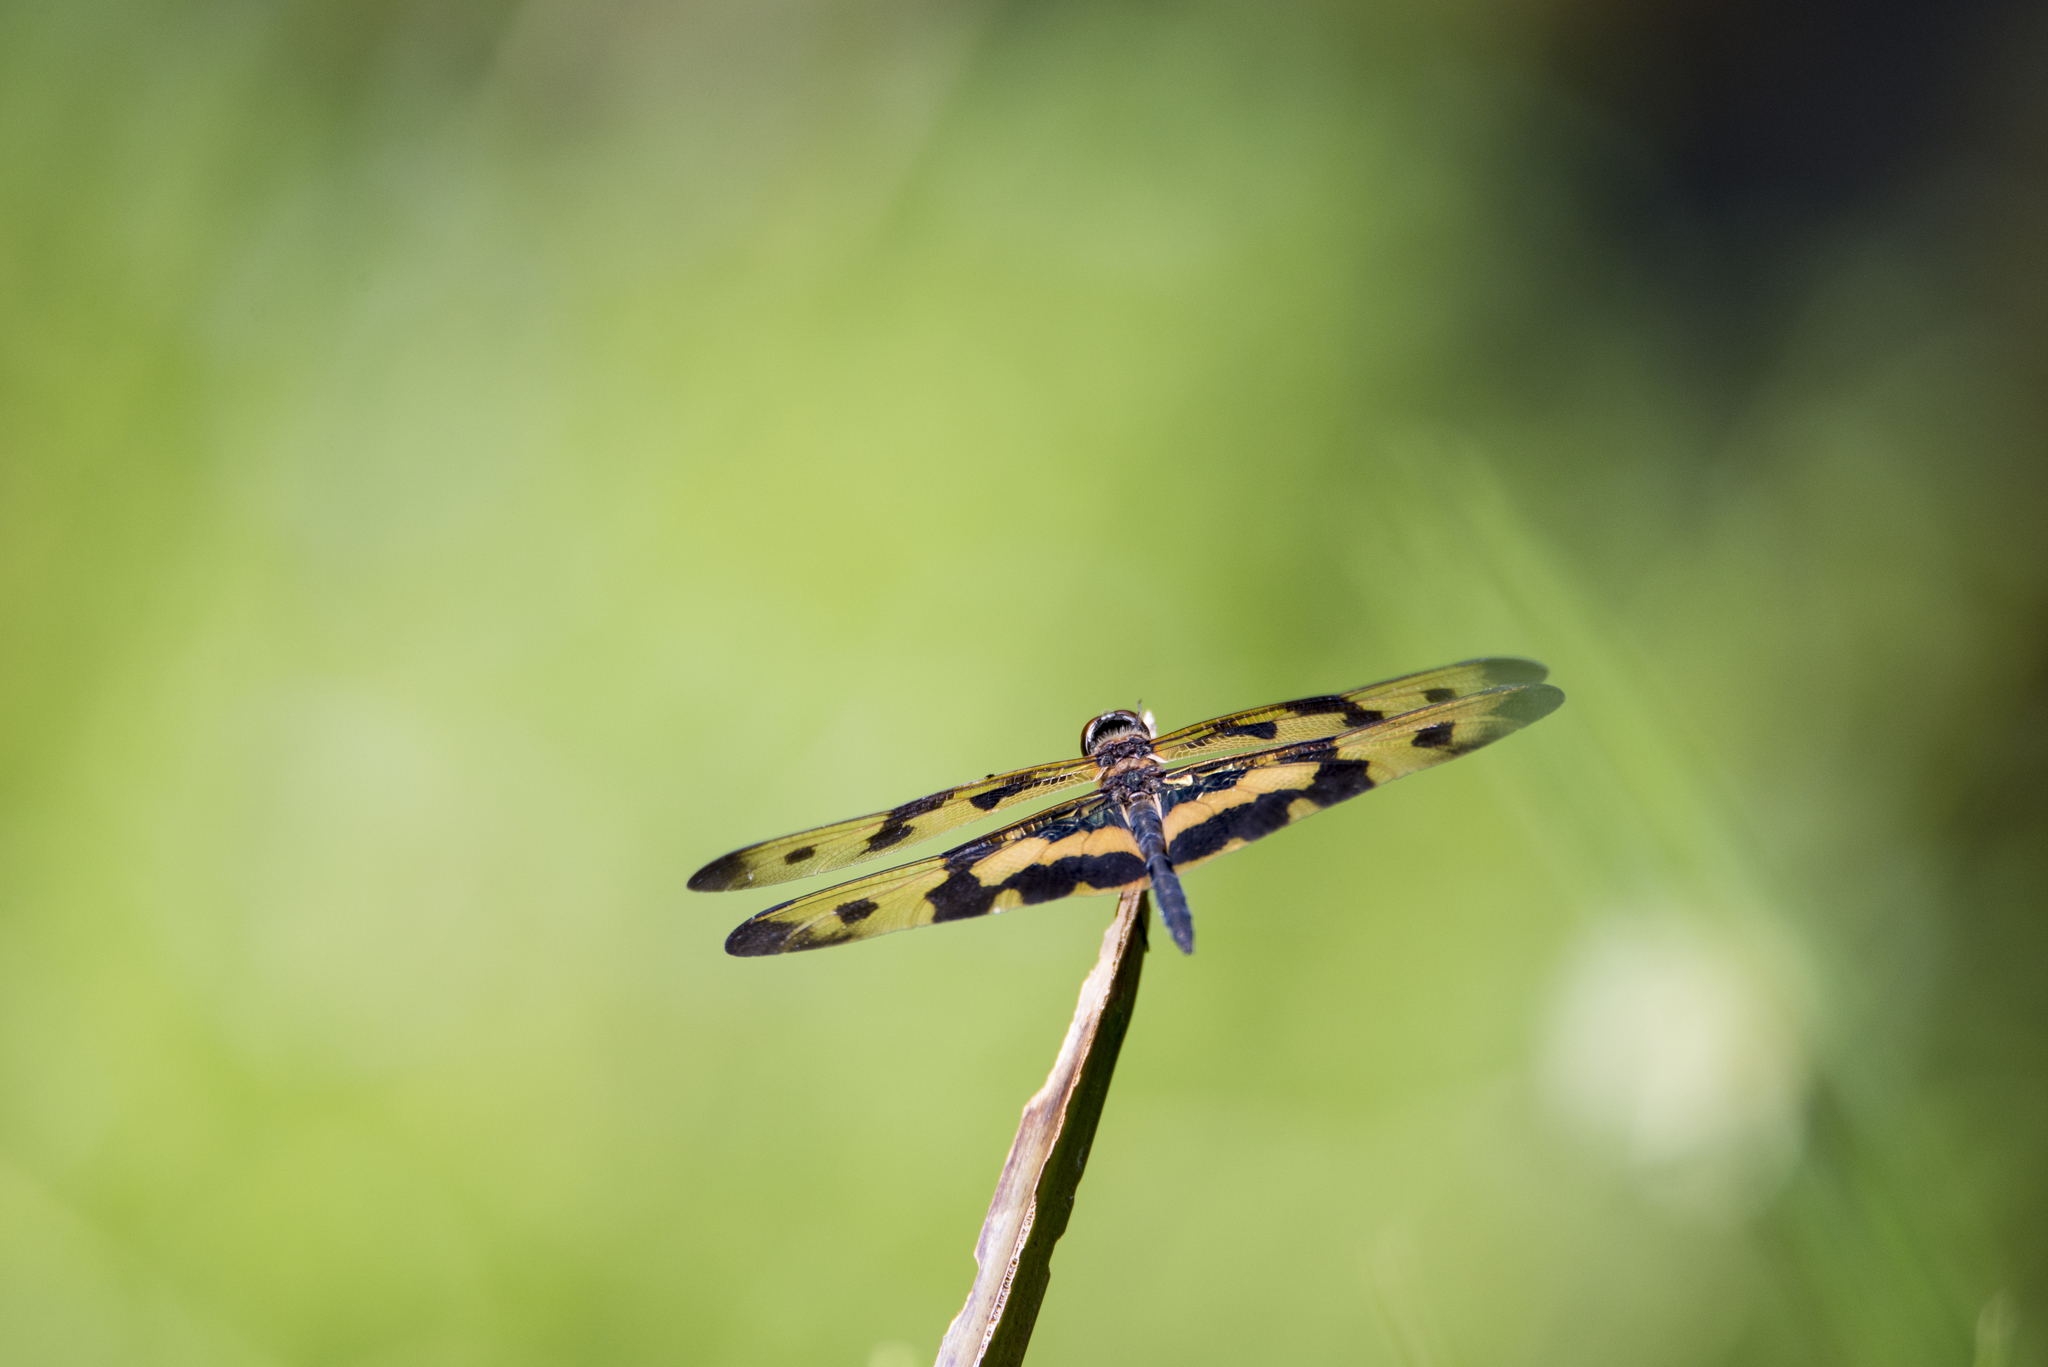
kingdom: Animalia
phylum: Arthropoda
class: Insecta
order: Odonata
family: Libellulidae
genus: Rhyothemis
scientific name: Rhyothemis variegata
